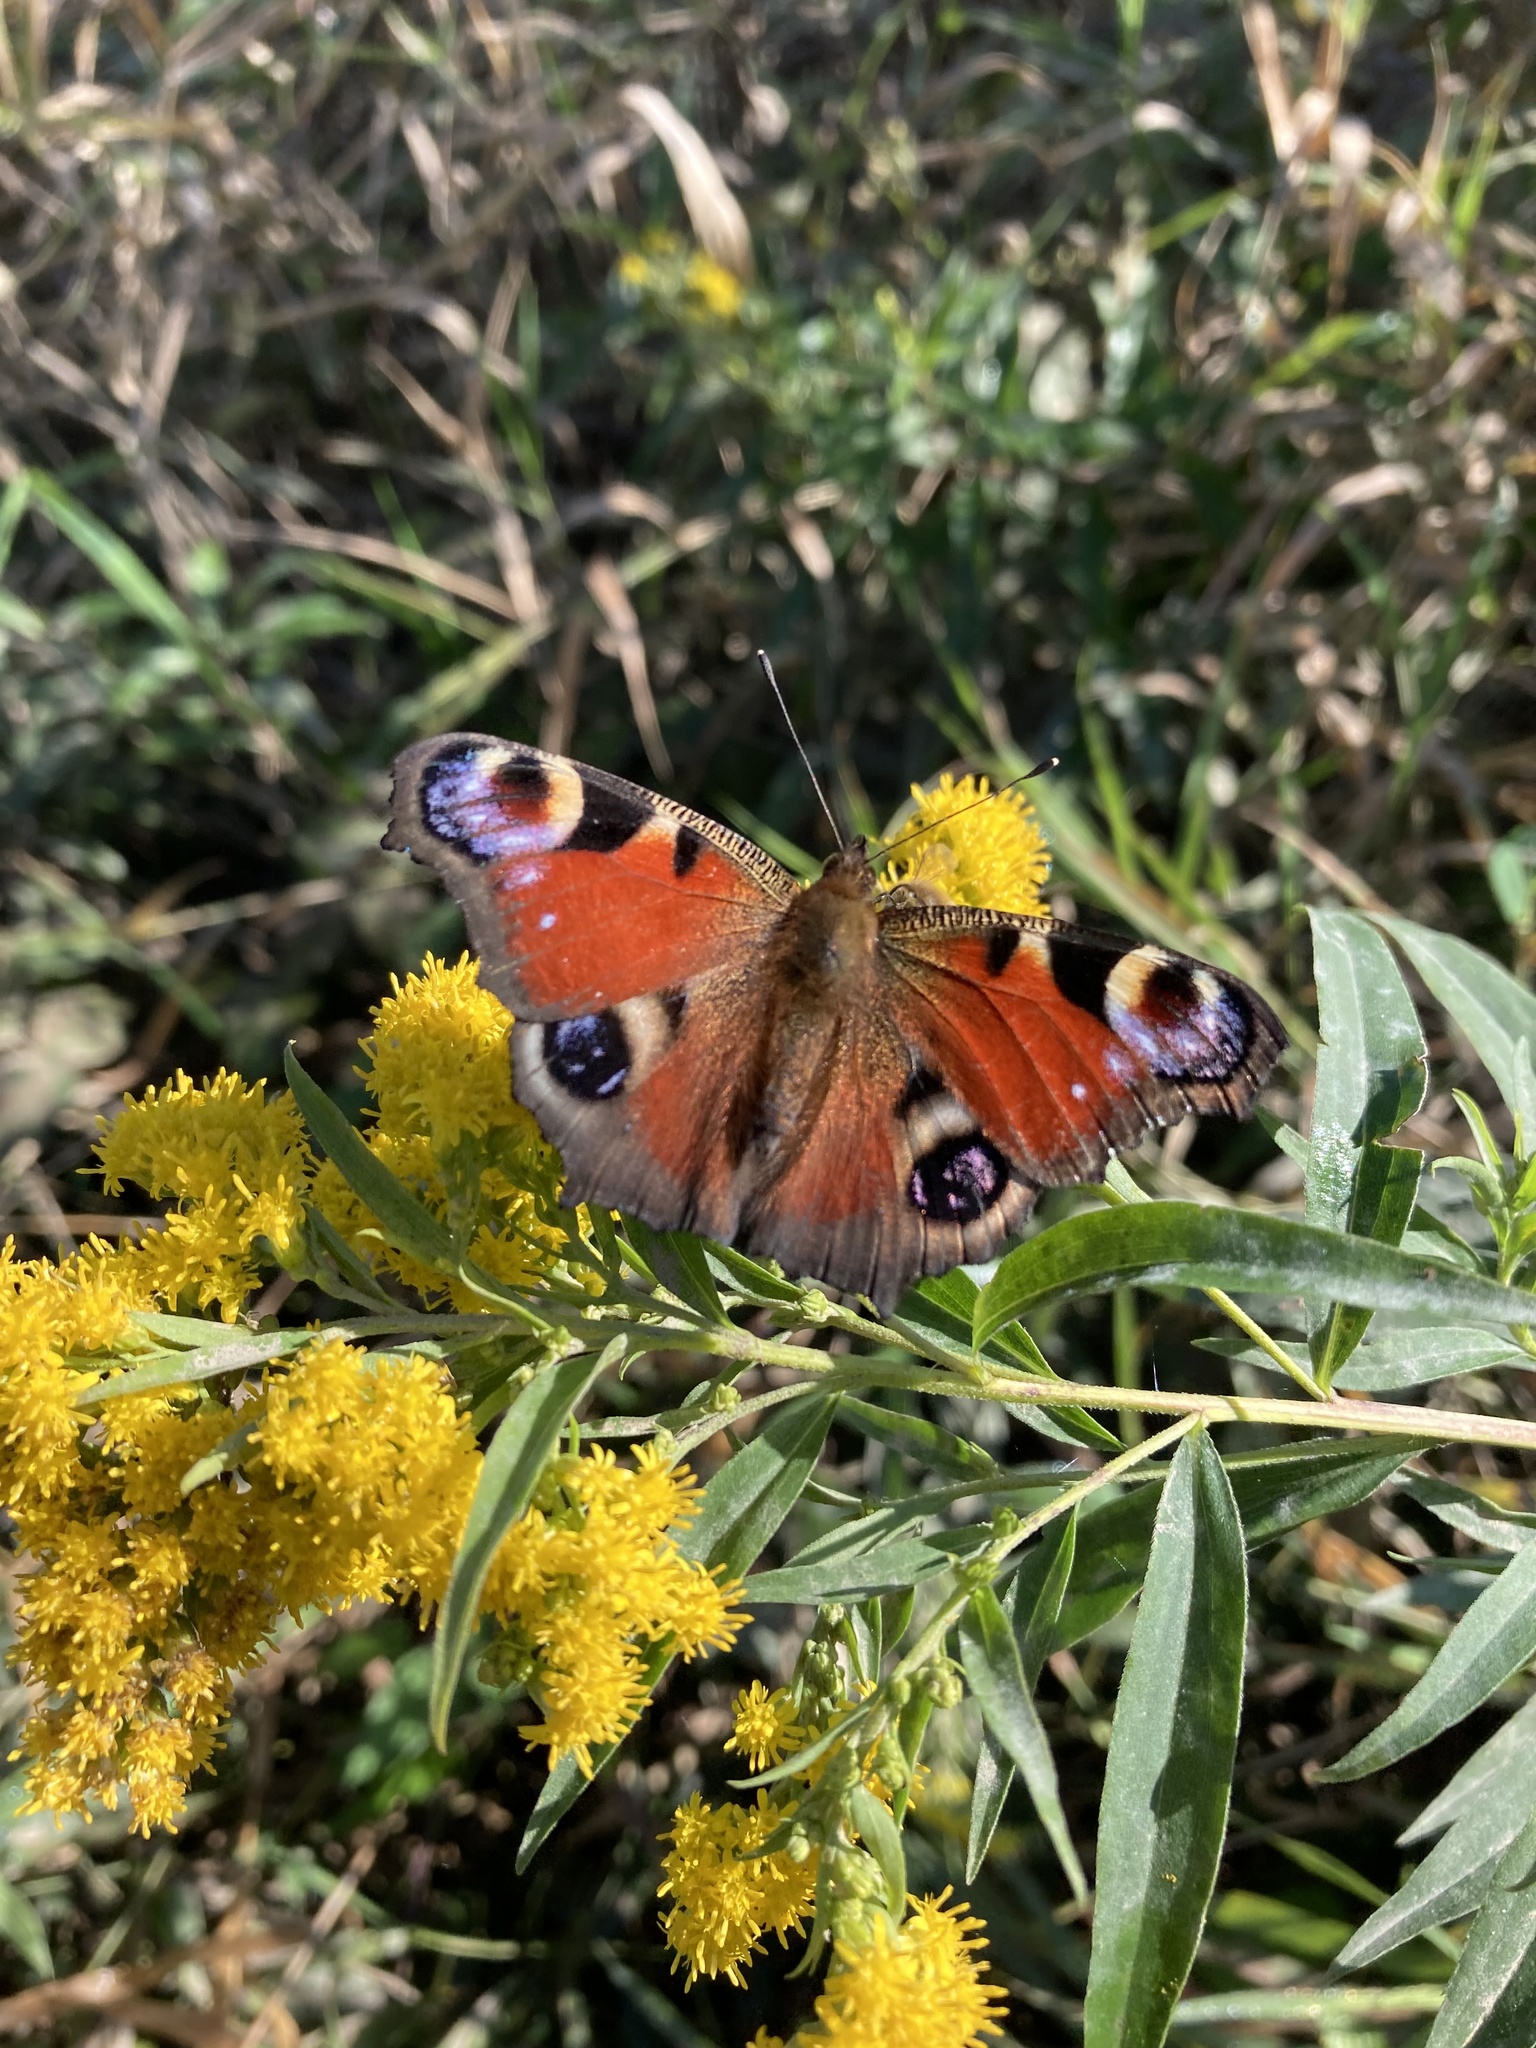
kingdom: Animalia
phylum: Arthropoda
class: Insecta
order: Lepidoptera
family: Nymphalidae
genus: Aglais
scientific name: Aglais io
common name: Peacock
